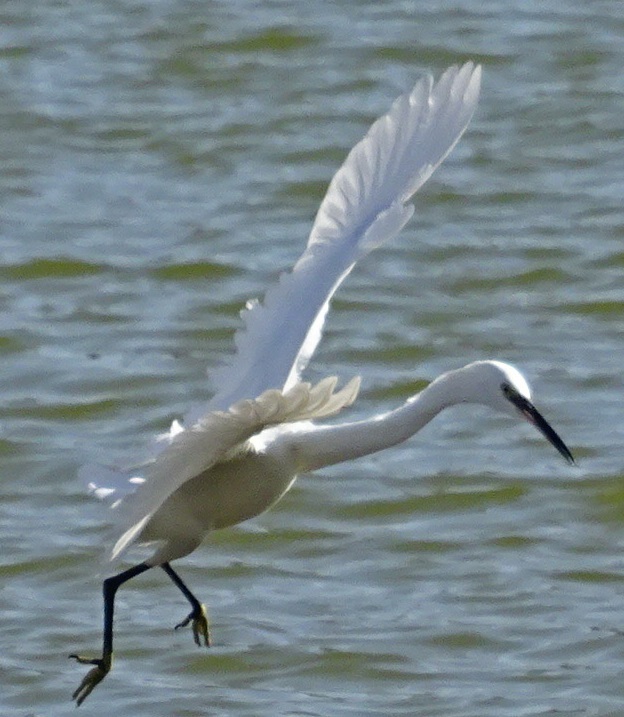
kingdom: Animalia
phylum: Chordata
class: Aves
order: Pelecaniformes
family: Ardeidae
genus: Egretta
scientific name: Egretta garzetta
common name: Little egret
